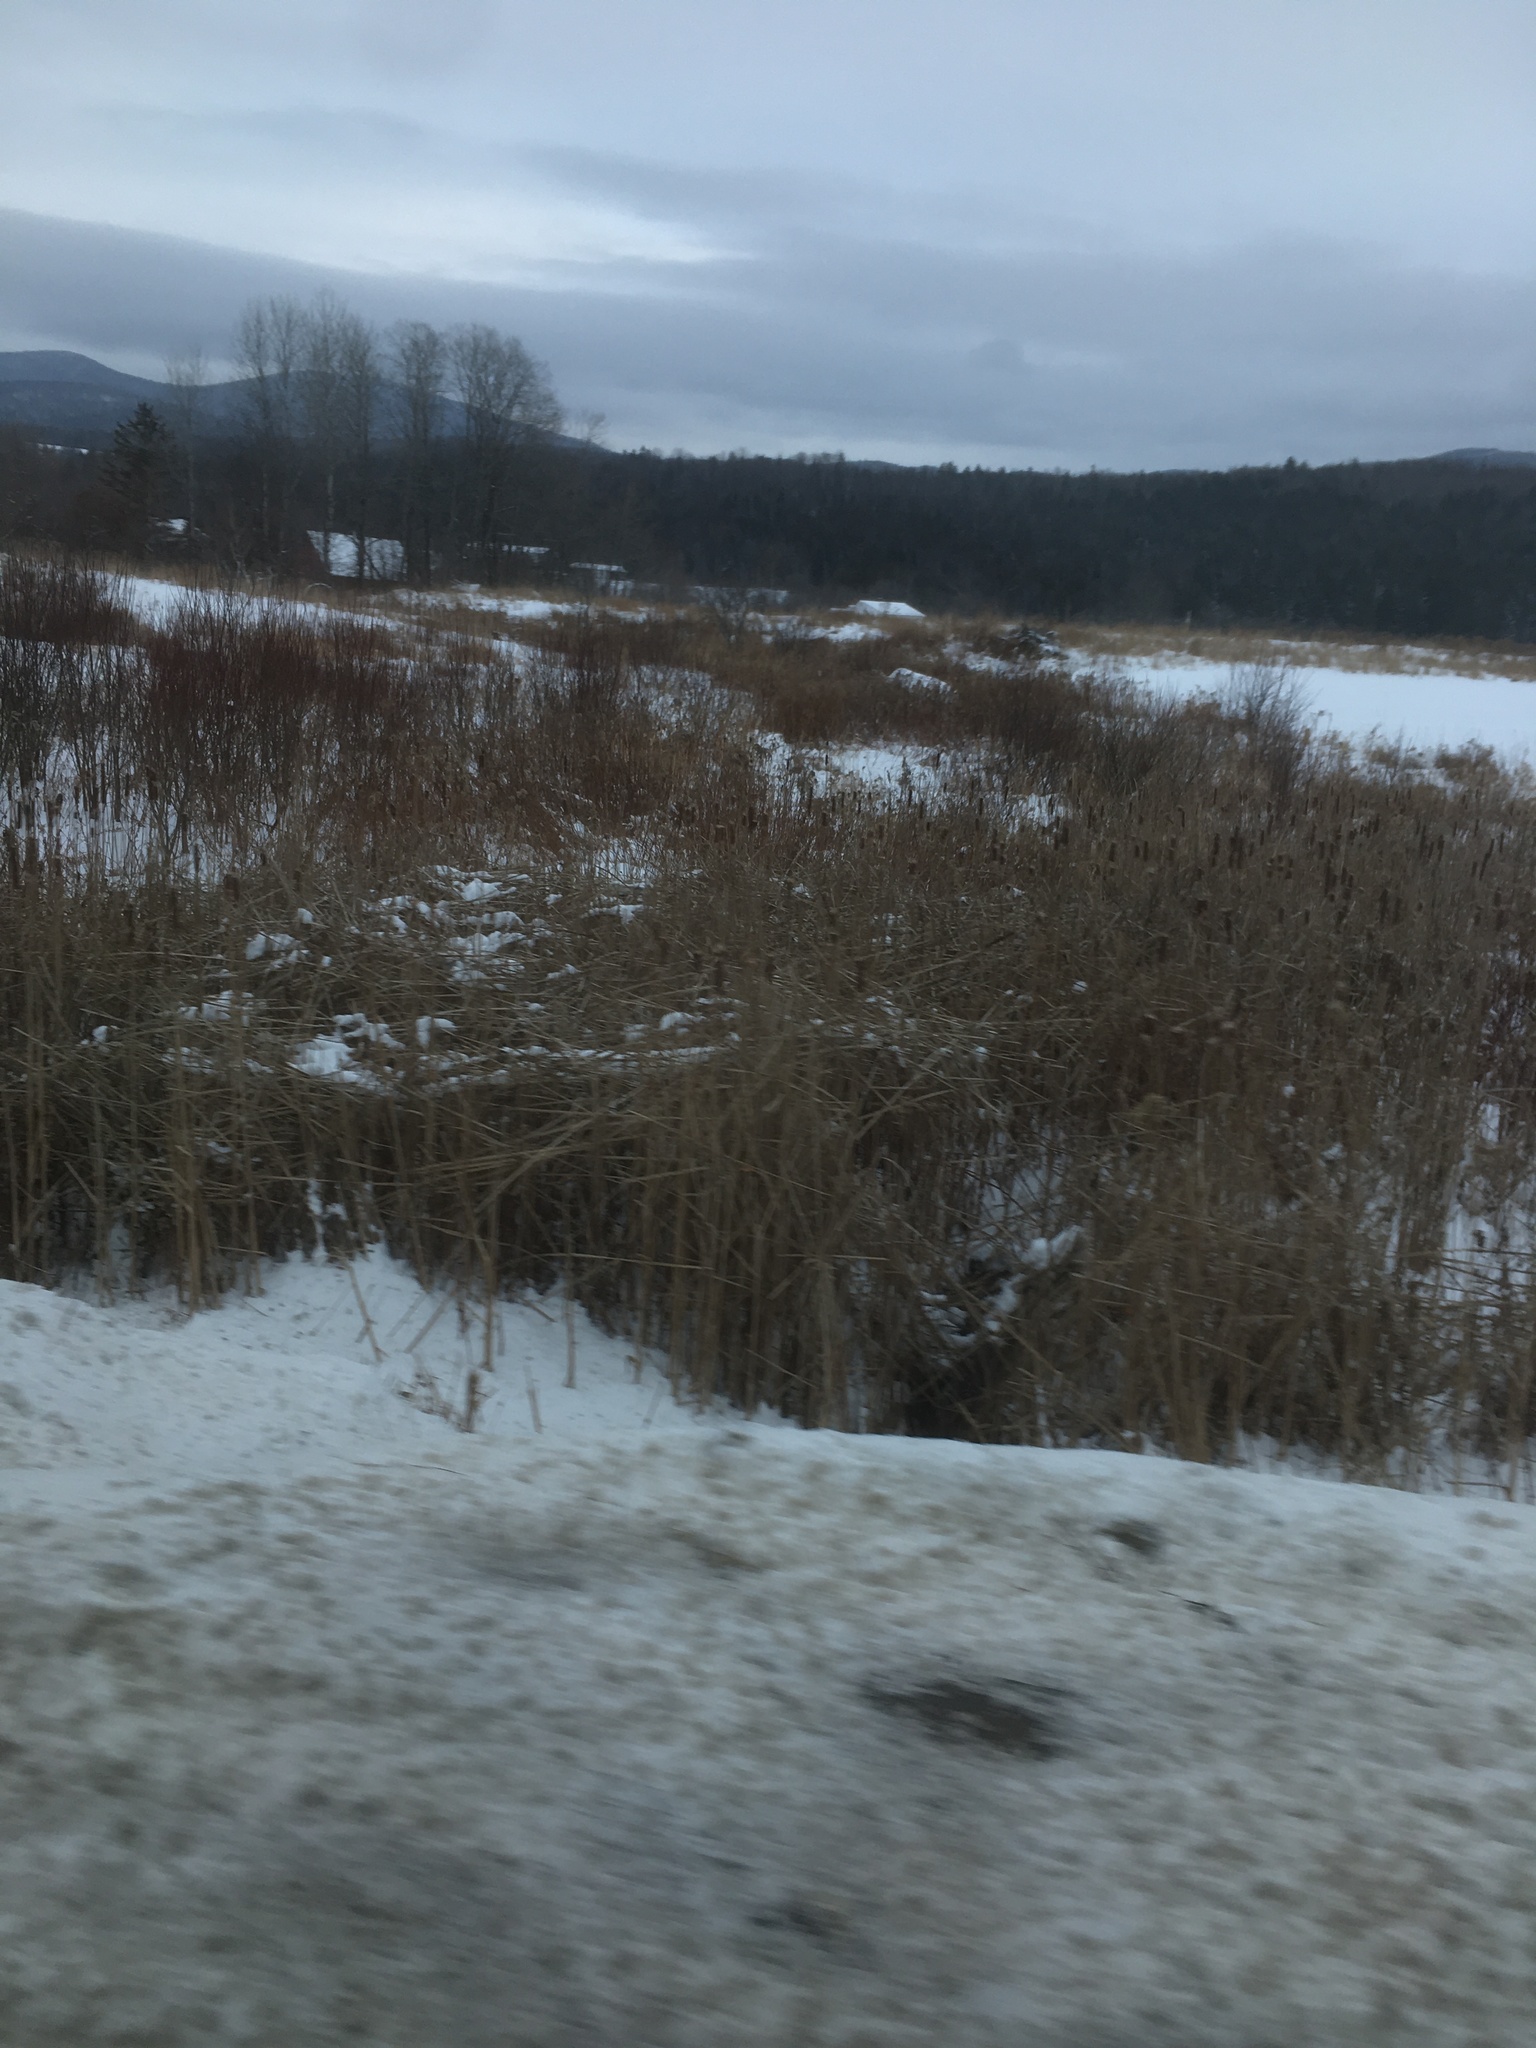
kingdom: Plantae
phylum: Tracheophyta
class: Liliopsida
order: Poales
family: Typhaceae
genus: Typha
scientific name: Typha
